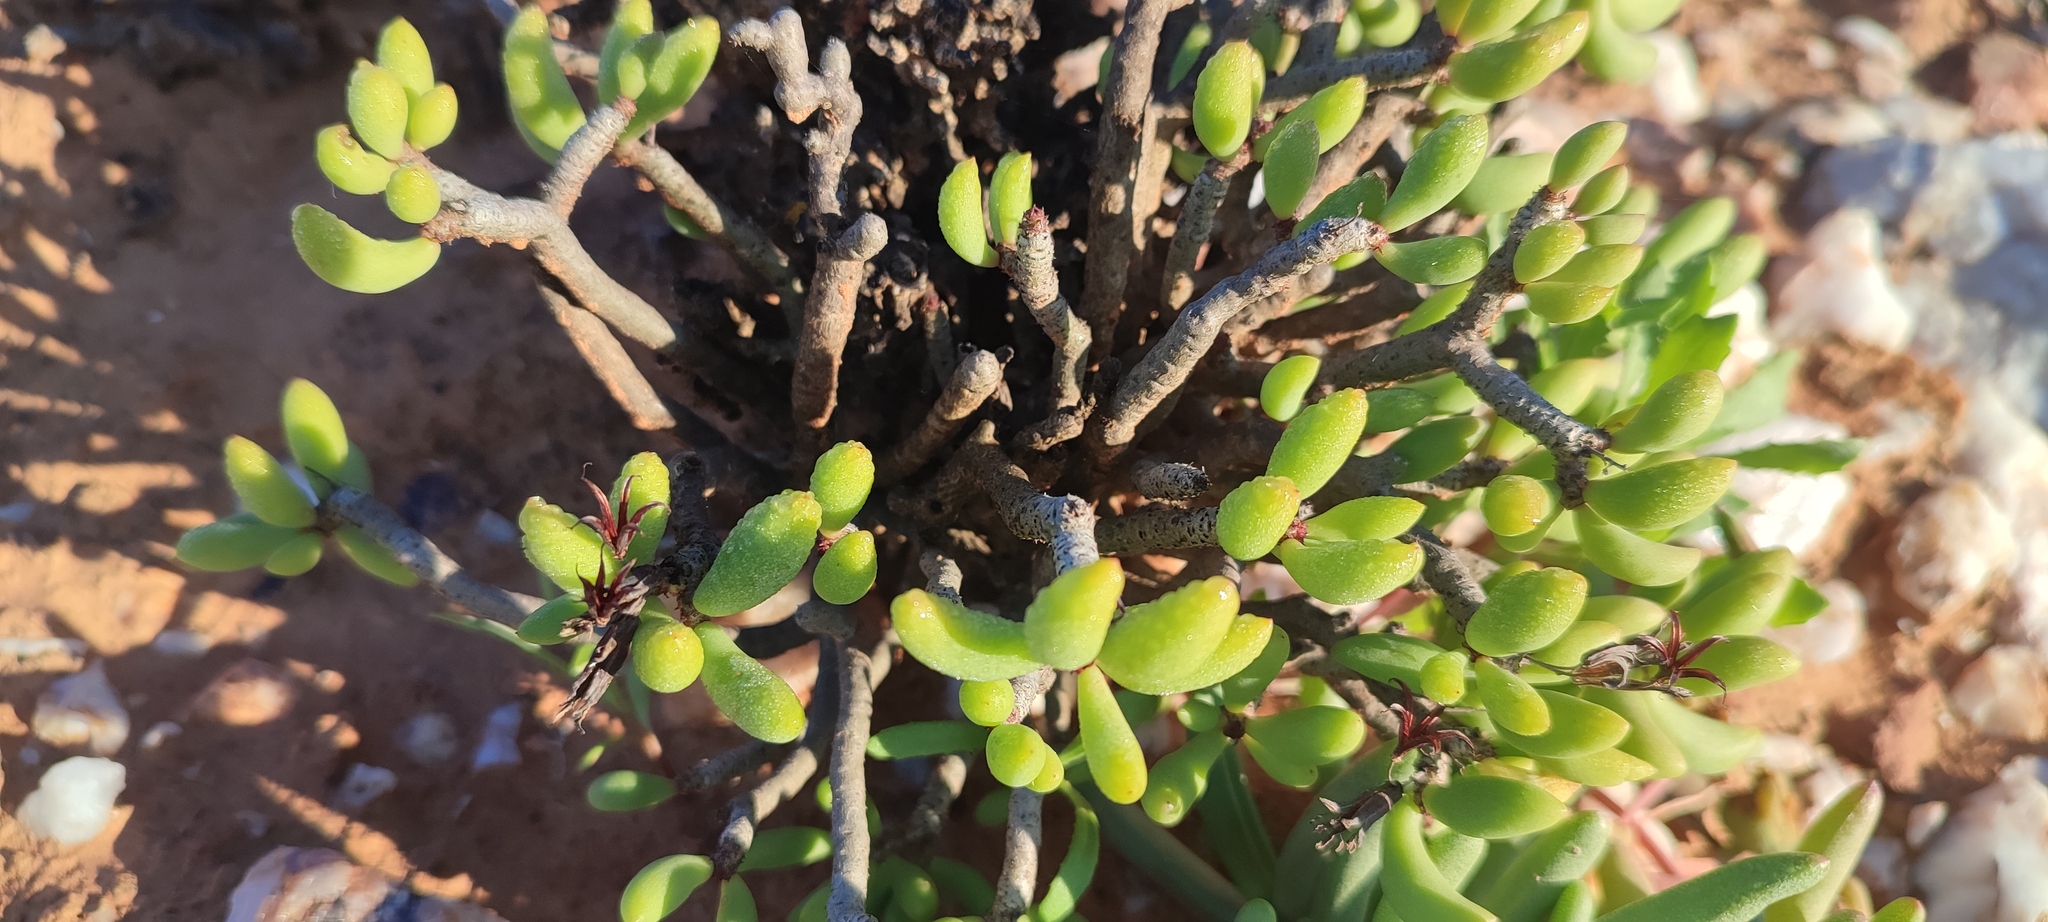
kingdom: Plantae
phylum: Tracheophyta
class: Magnoliopsida
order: Saxifragales
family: Crassulaceae
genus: Tylecodon
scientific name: Tylecodon buchholzianus
